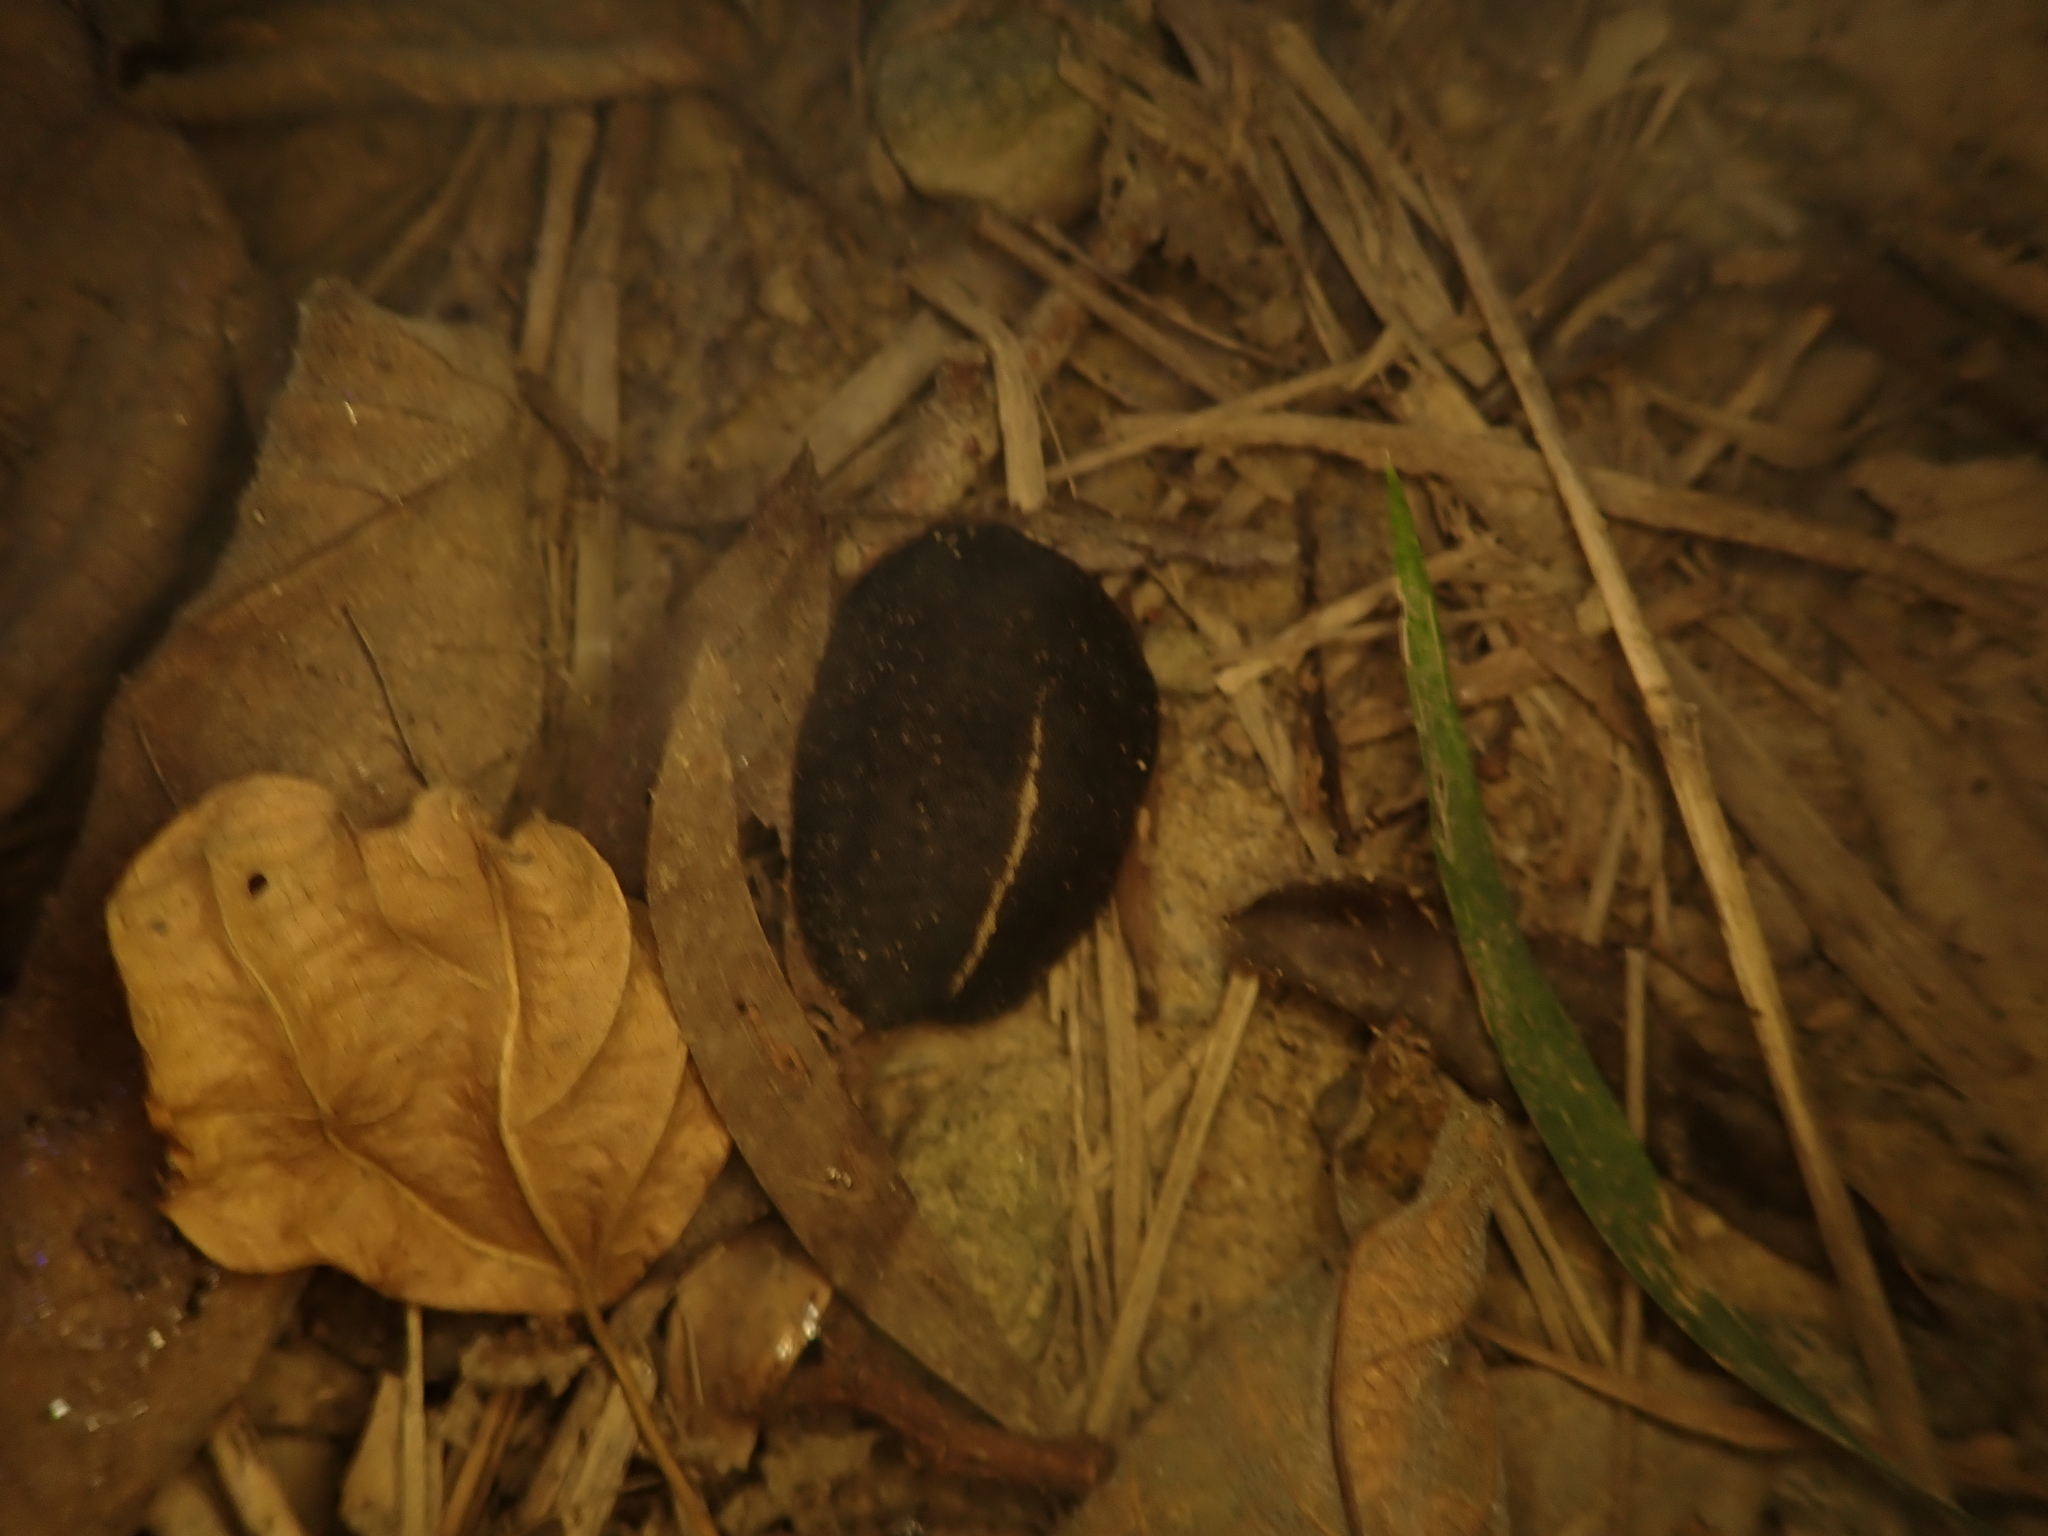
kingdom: Animalia
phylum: Mollusca
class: Gastropoda
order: Systellommatophora
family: Veronicellidae
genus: Laevicaulis
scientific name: Laevicaulis alte
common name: Tropical leatherleaf
